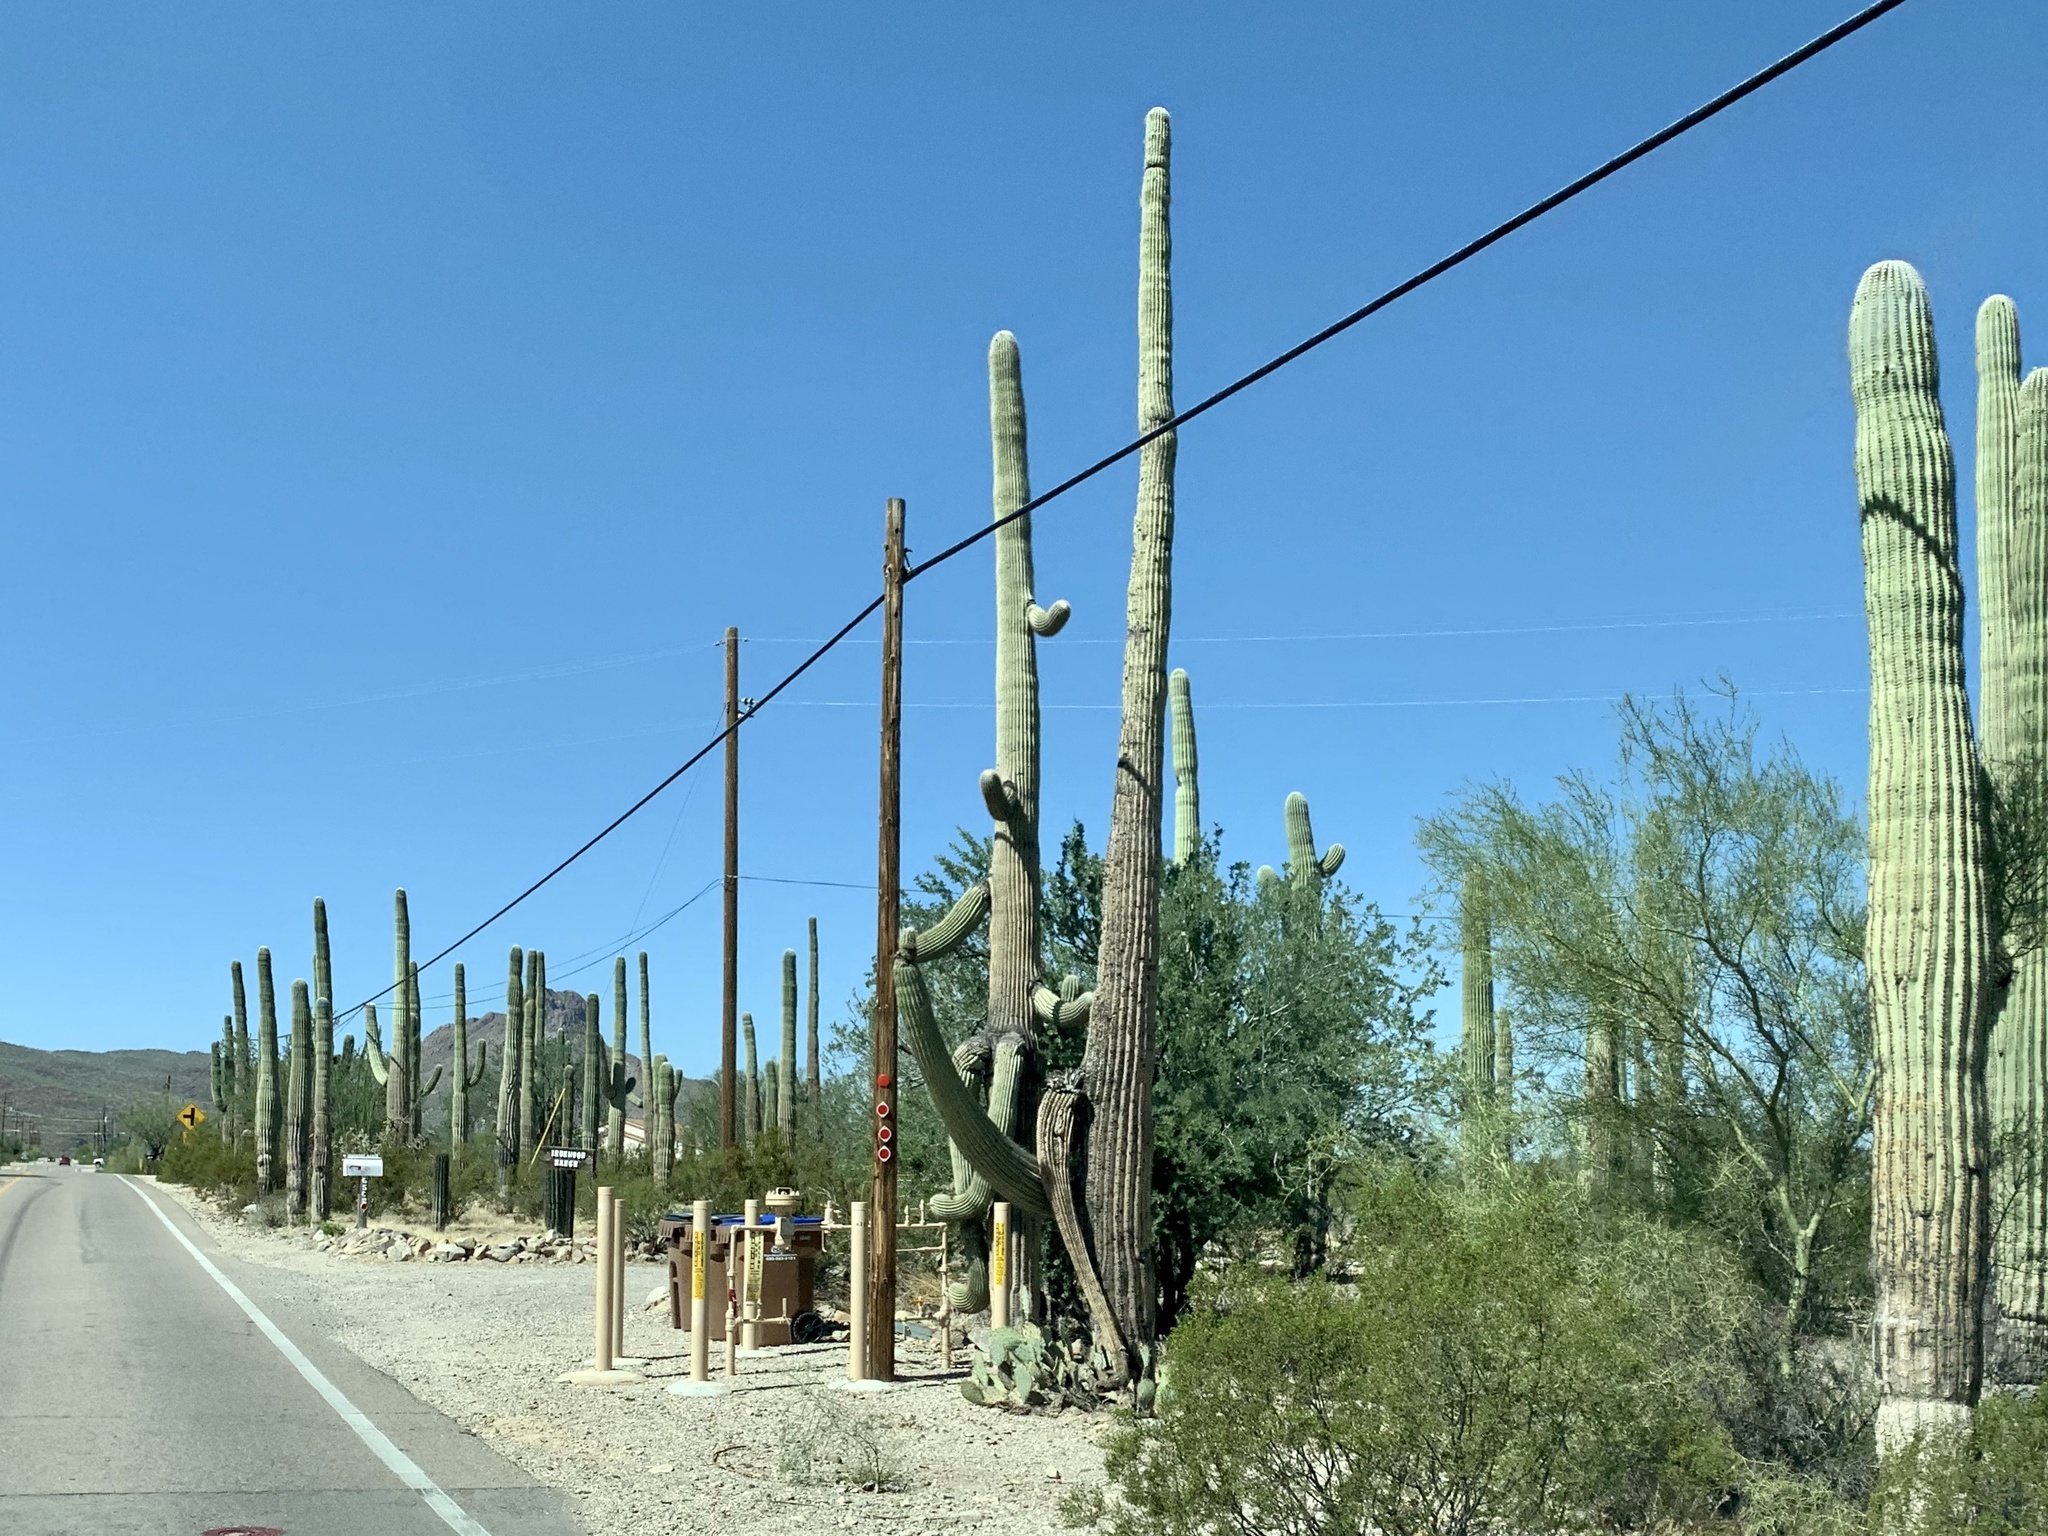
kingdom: Plantae
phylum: Tracheophyta
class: Magnoliopsida
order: Caryophyllales
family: Cactaceae
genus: Carnegiea
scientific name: Carnegiea gigantea
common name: Saguaro
